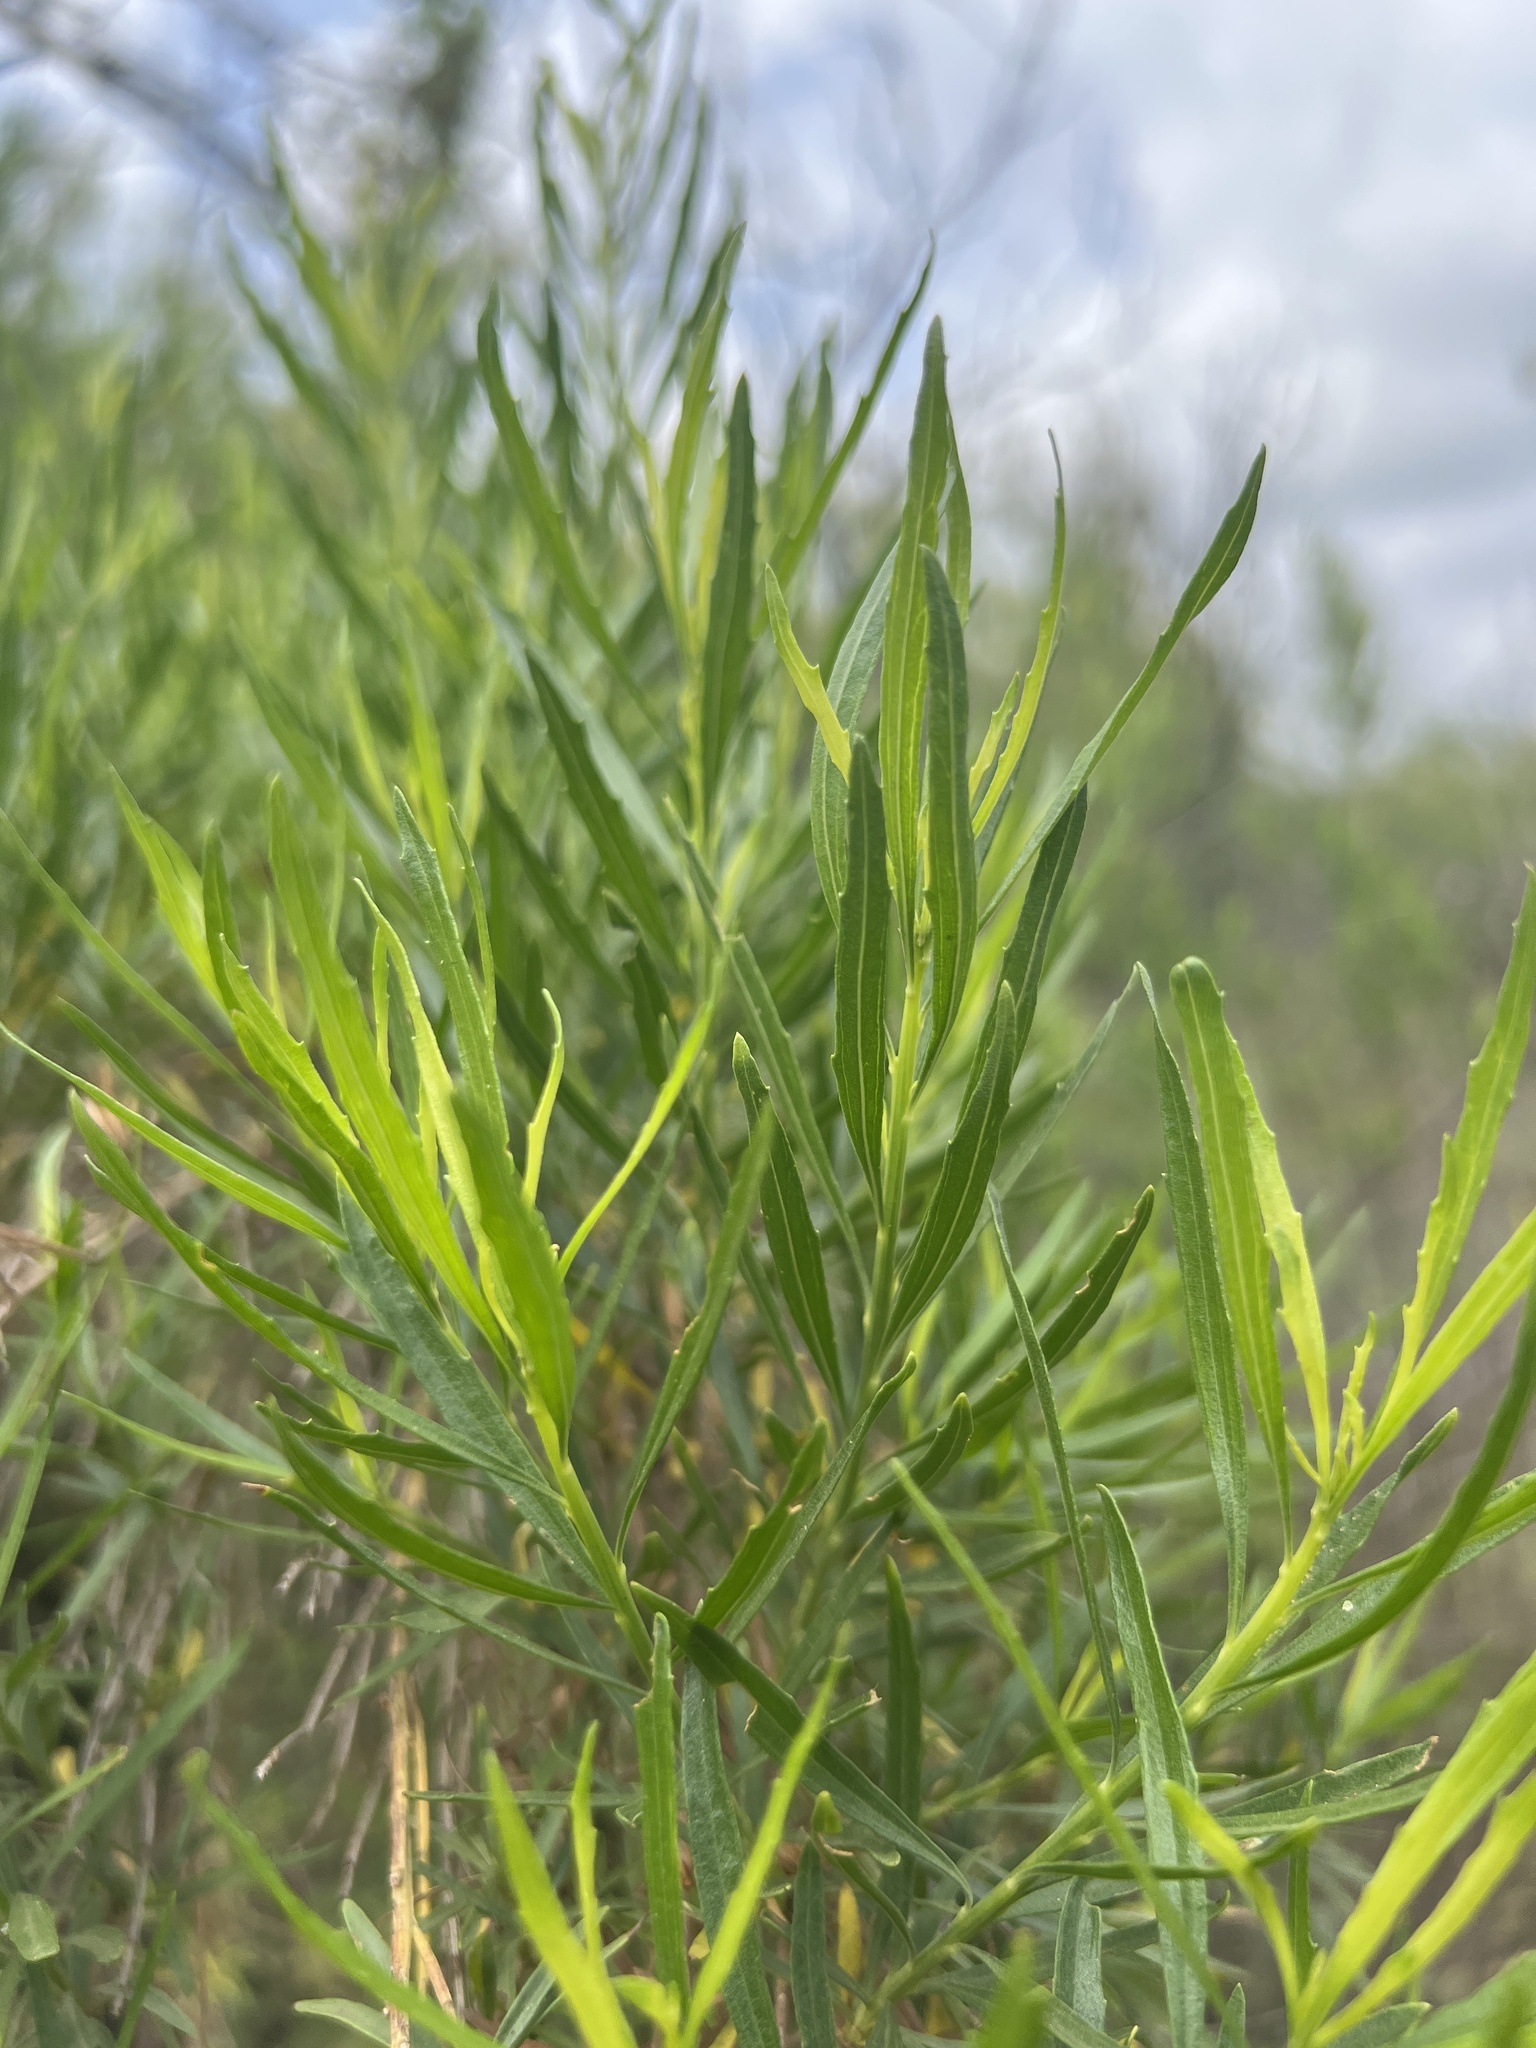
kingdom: Plantae
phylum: Tracheophyta
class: Magnoliopsida
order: Asterales
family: Asteraceae
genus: Baccharis
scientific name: Baccharis neglecta
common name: Roosevelt-weed
